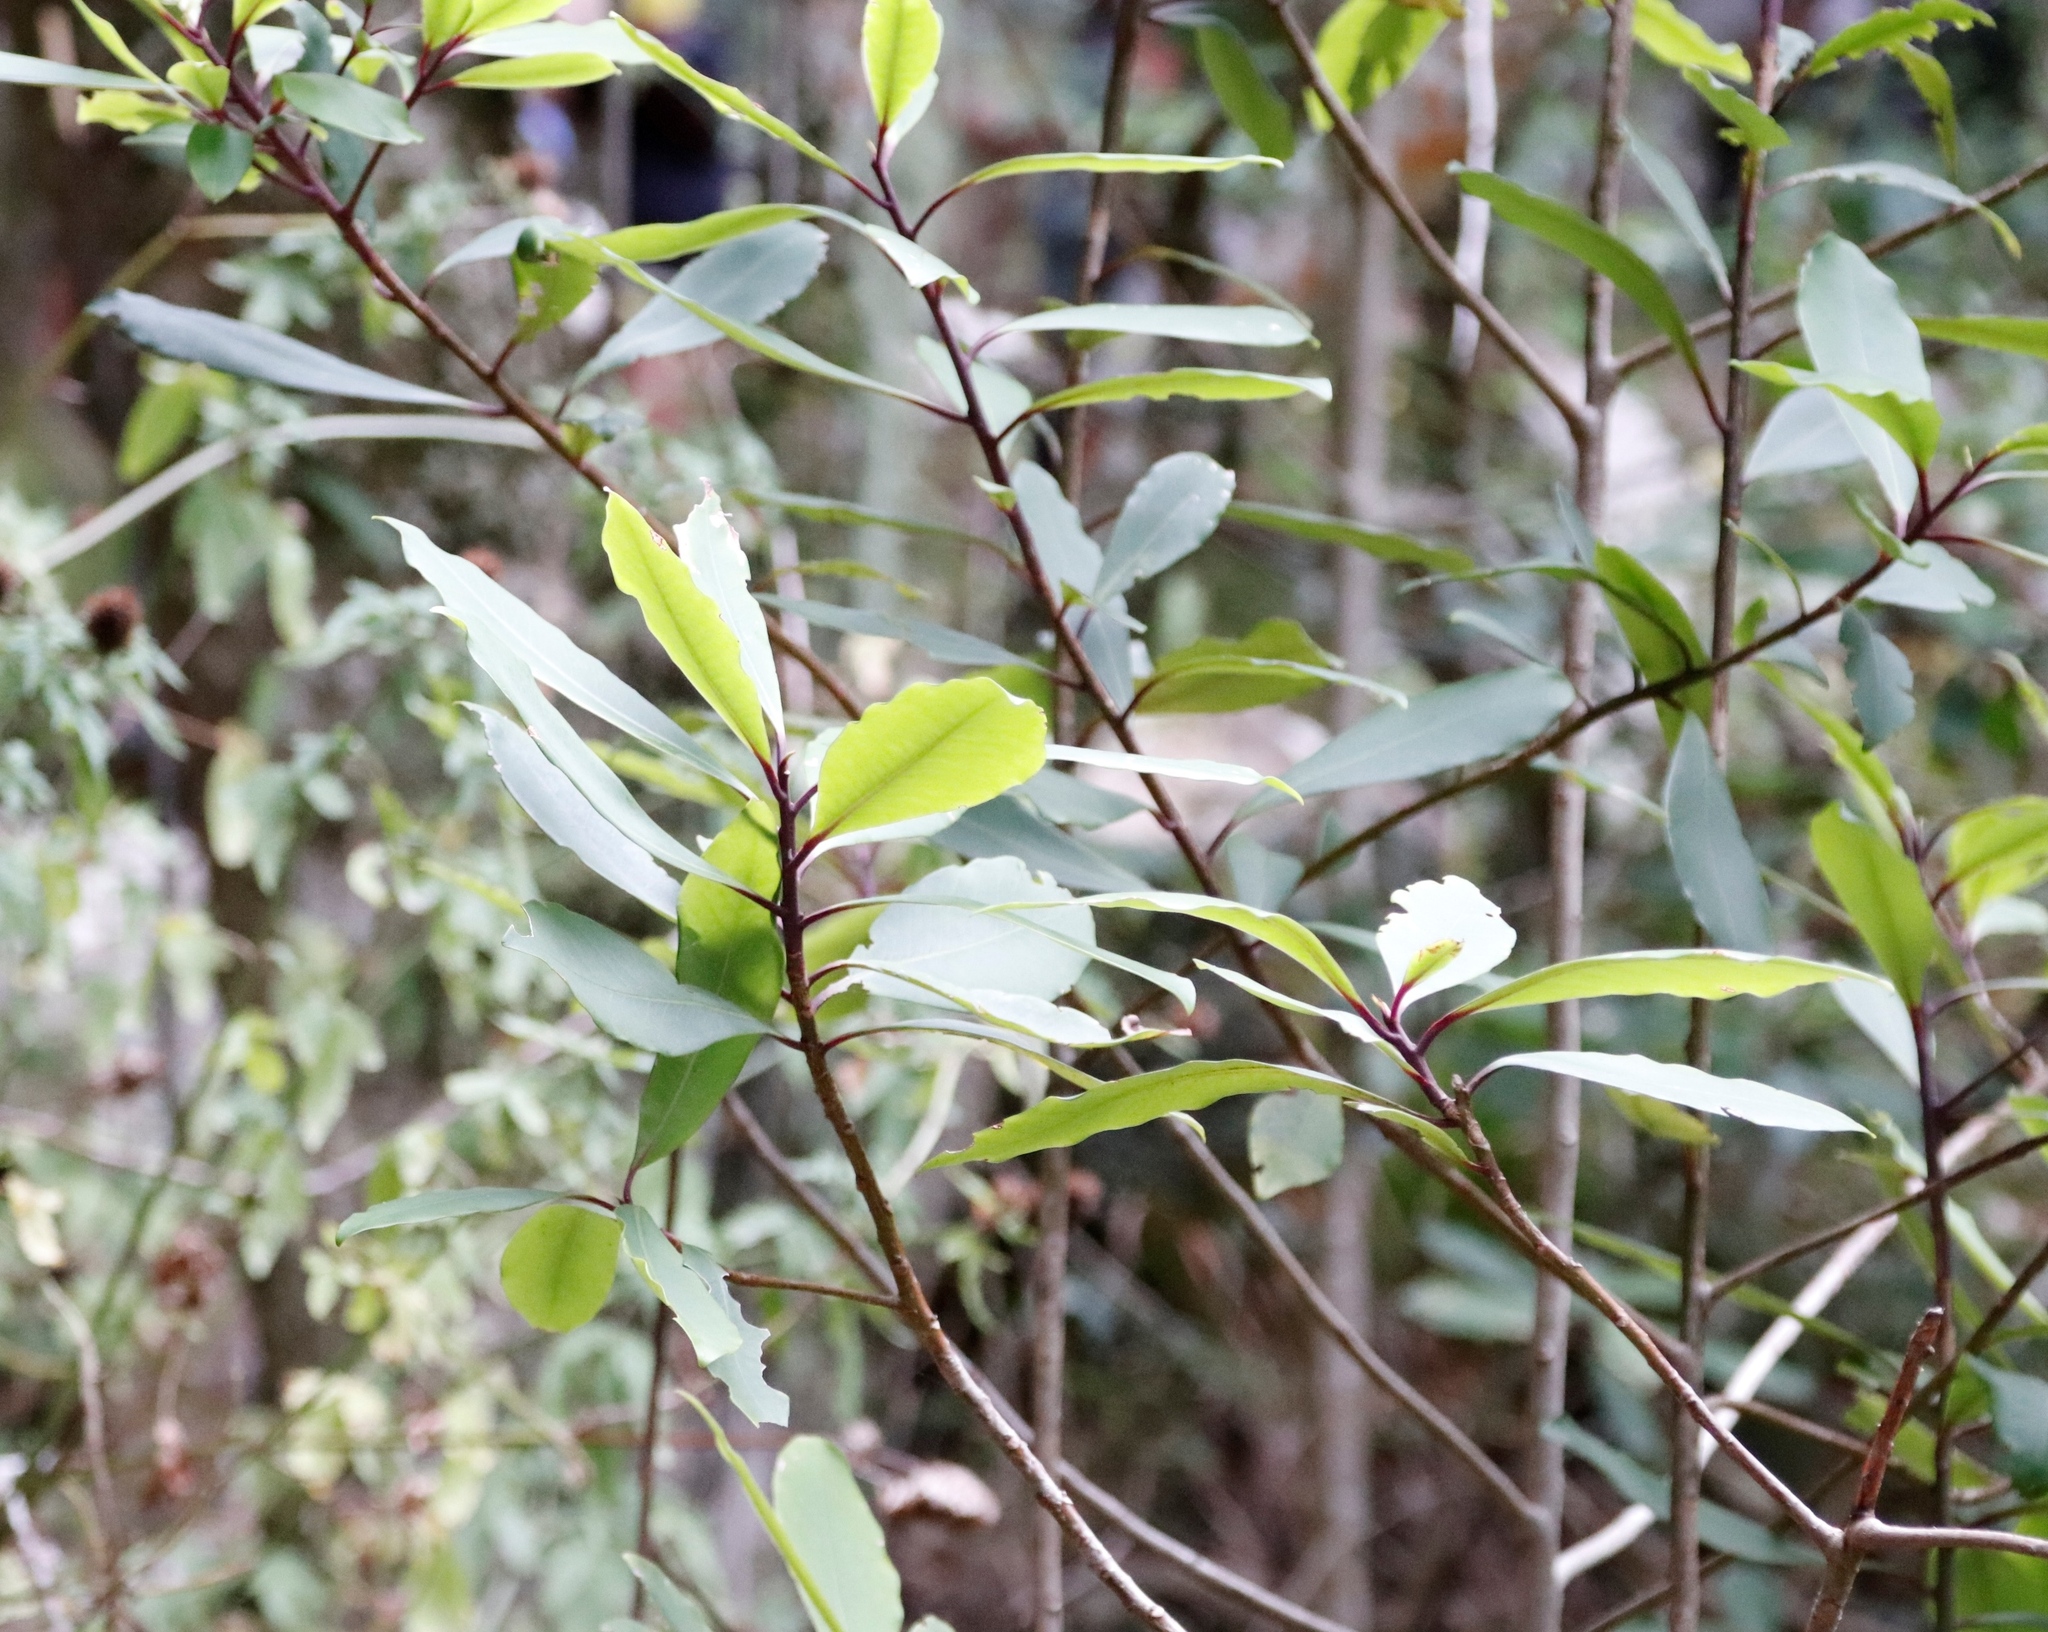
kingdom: Plantae
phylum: Tracheophyta
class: Magnoliopsida
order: Ericales
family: Primulaceae
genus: Myrsine
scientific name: Myrsine melanophloeos
